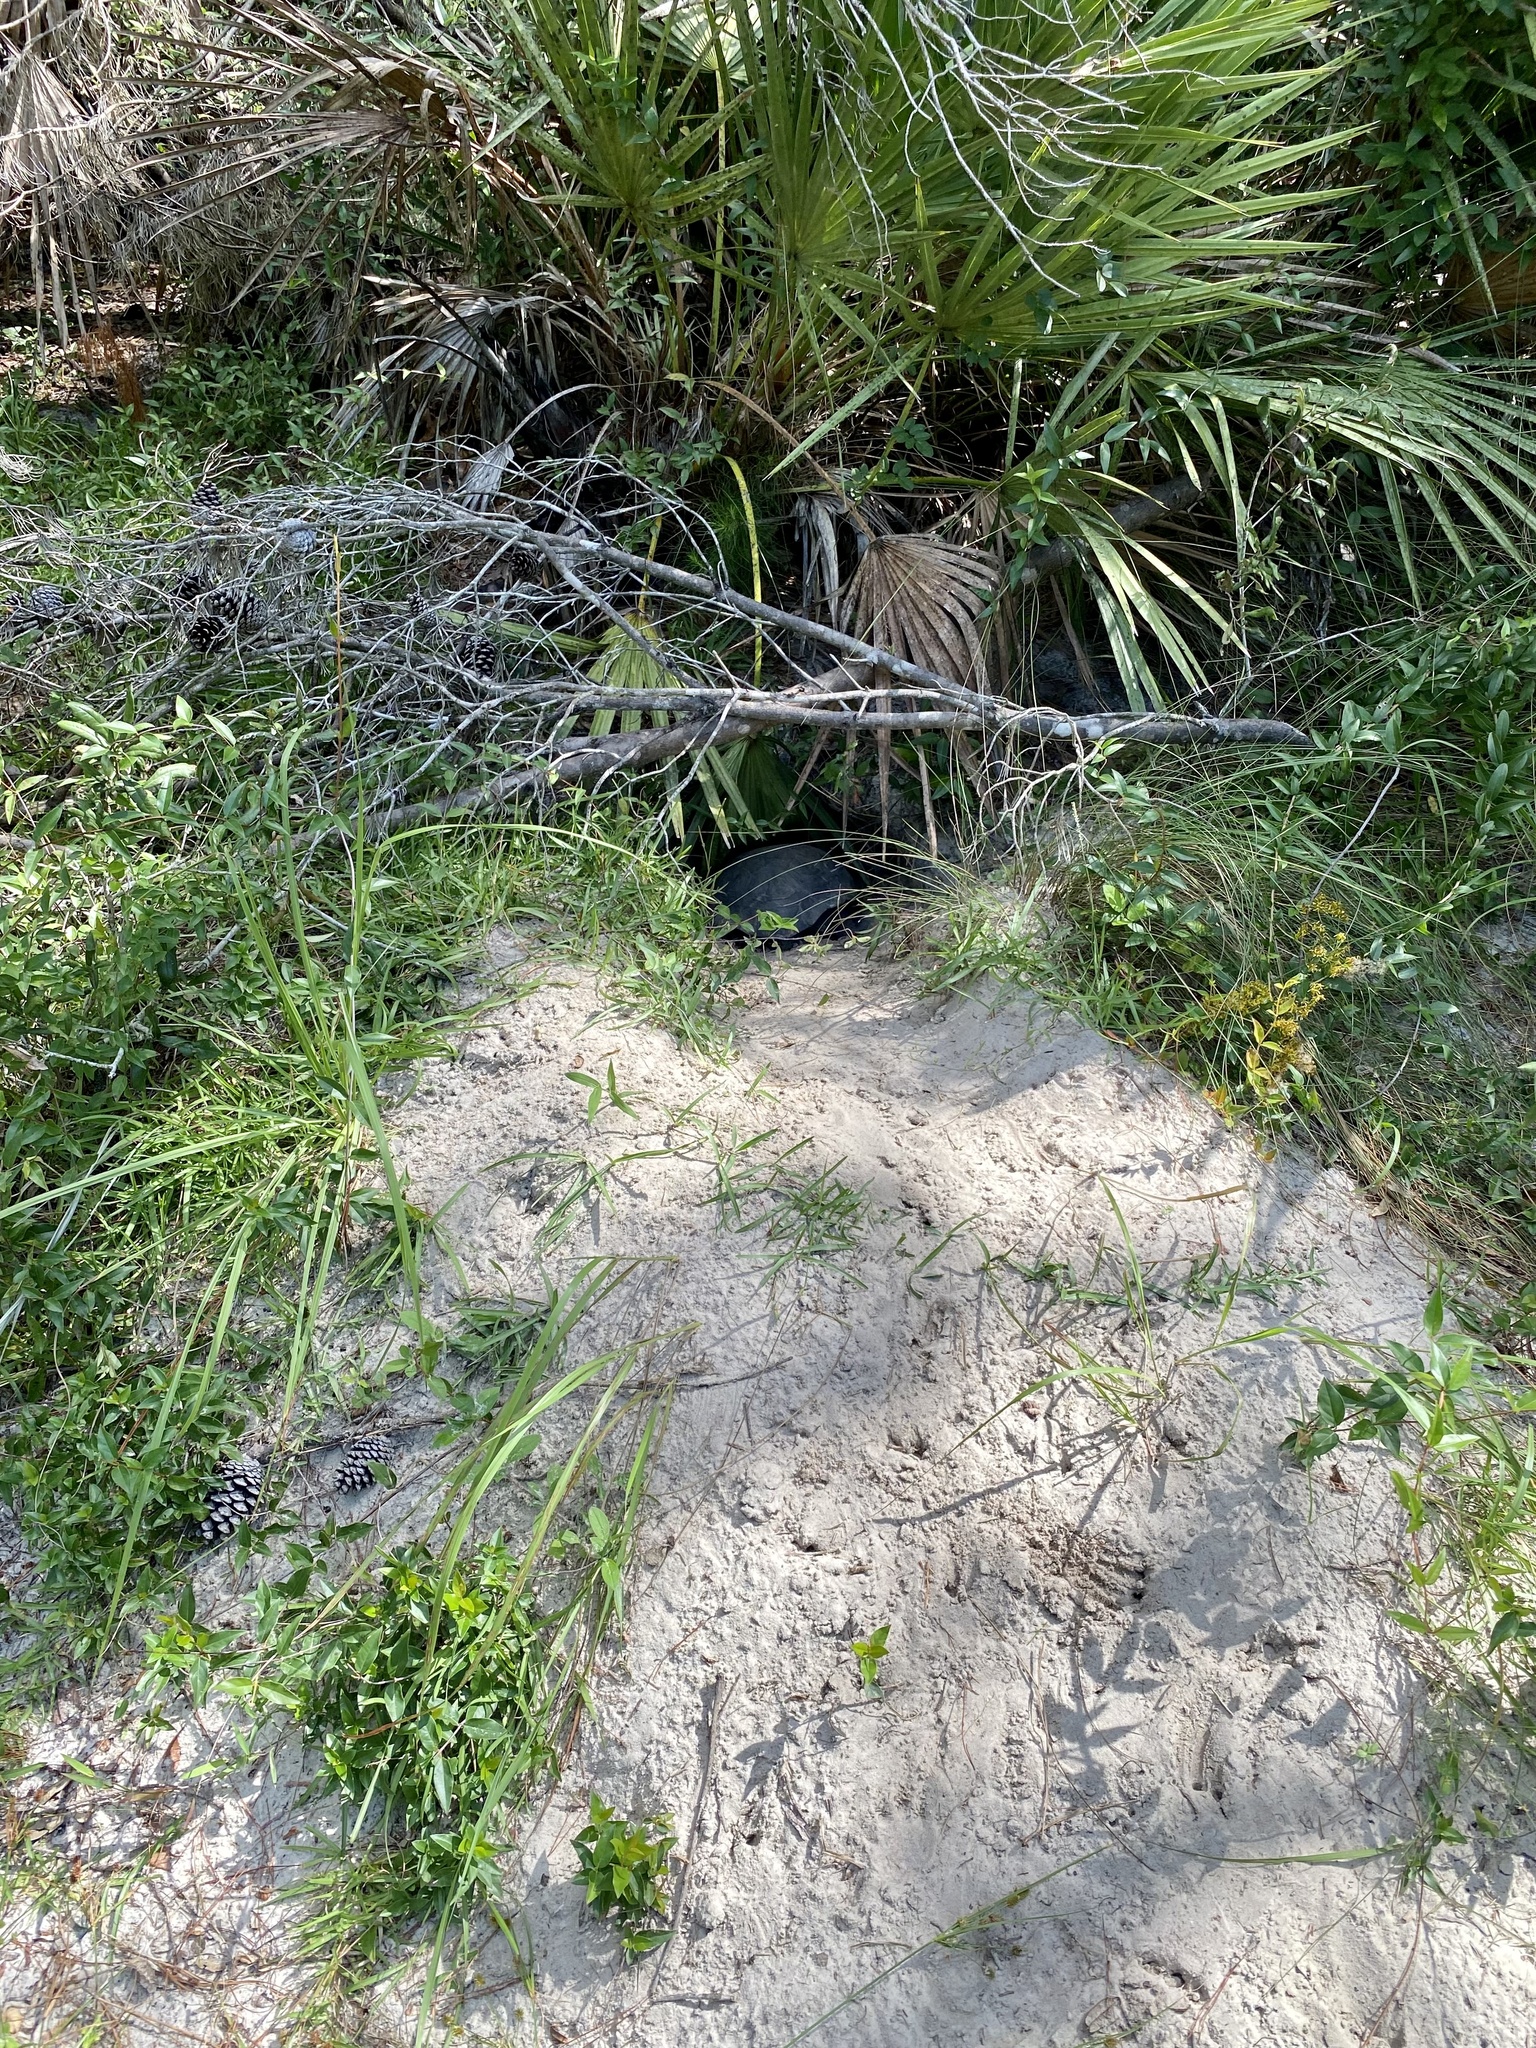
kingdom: Animalia
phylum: Chordata
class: Testudines
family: Testudinidae
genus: Gopherus
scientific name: Gopherus polyphemus
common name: Florida gopher tortoise
